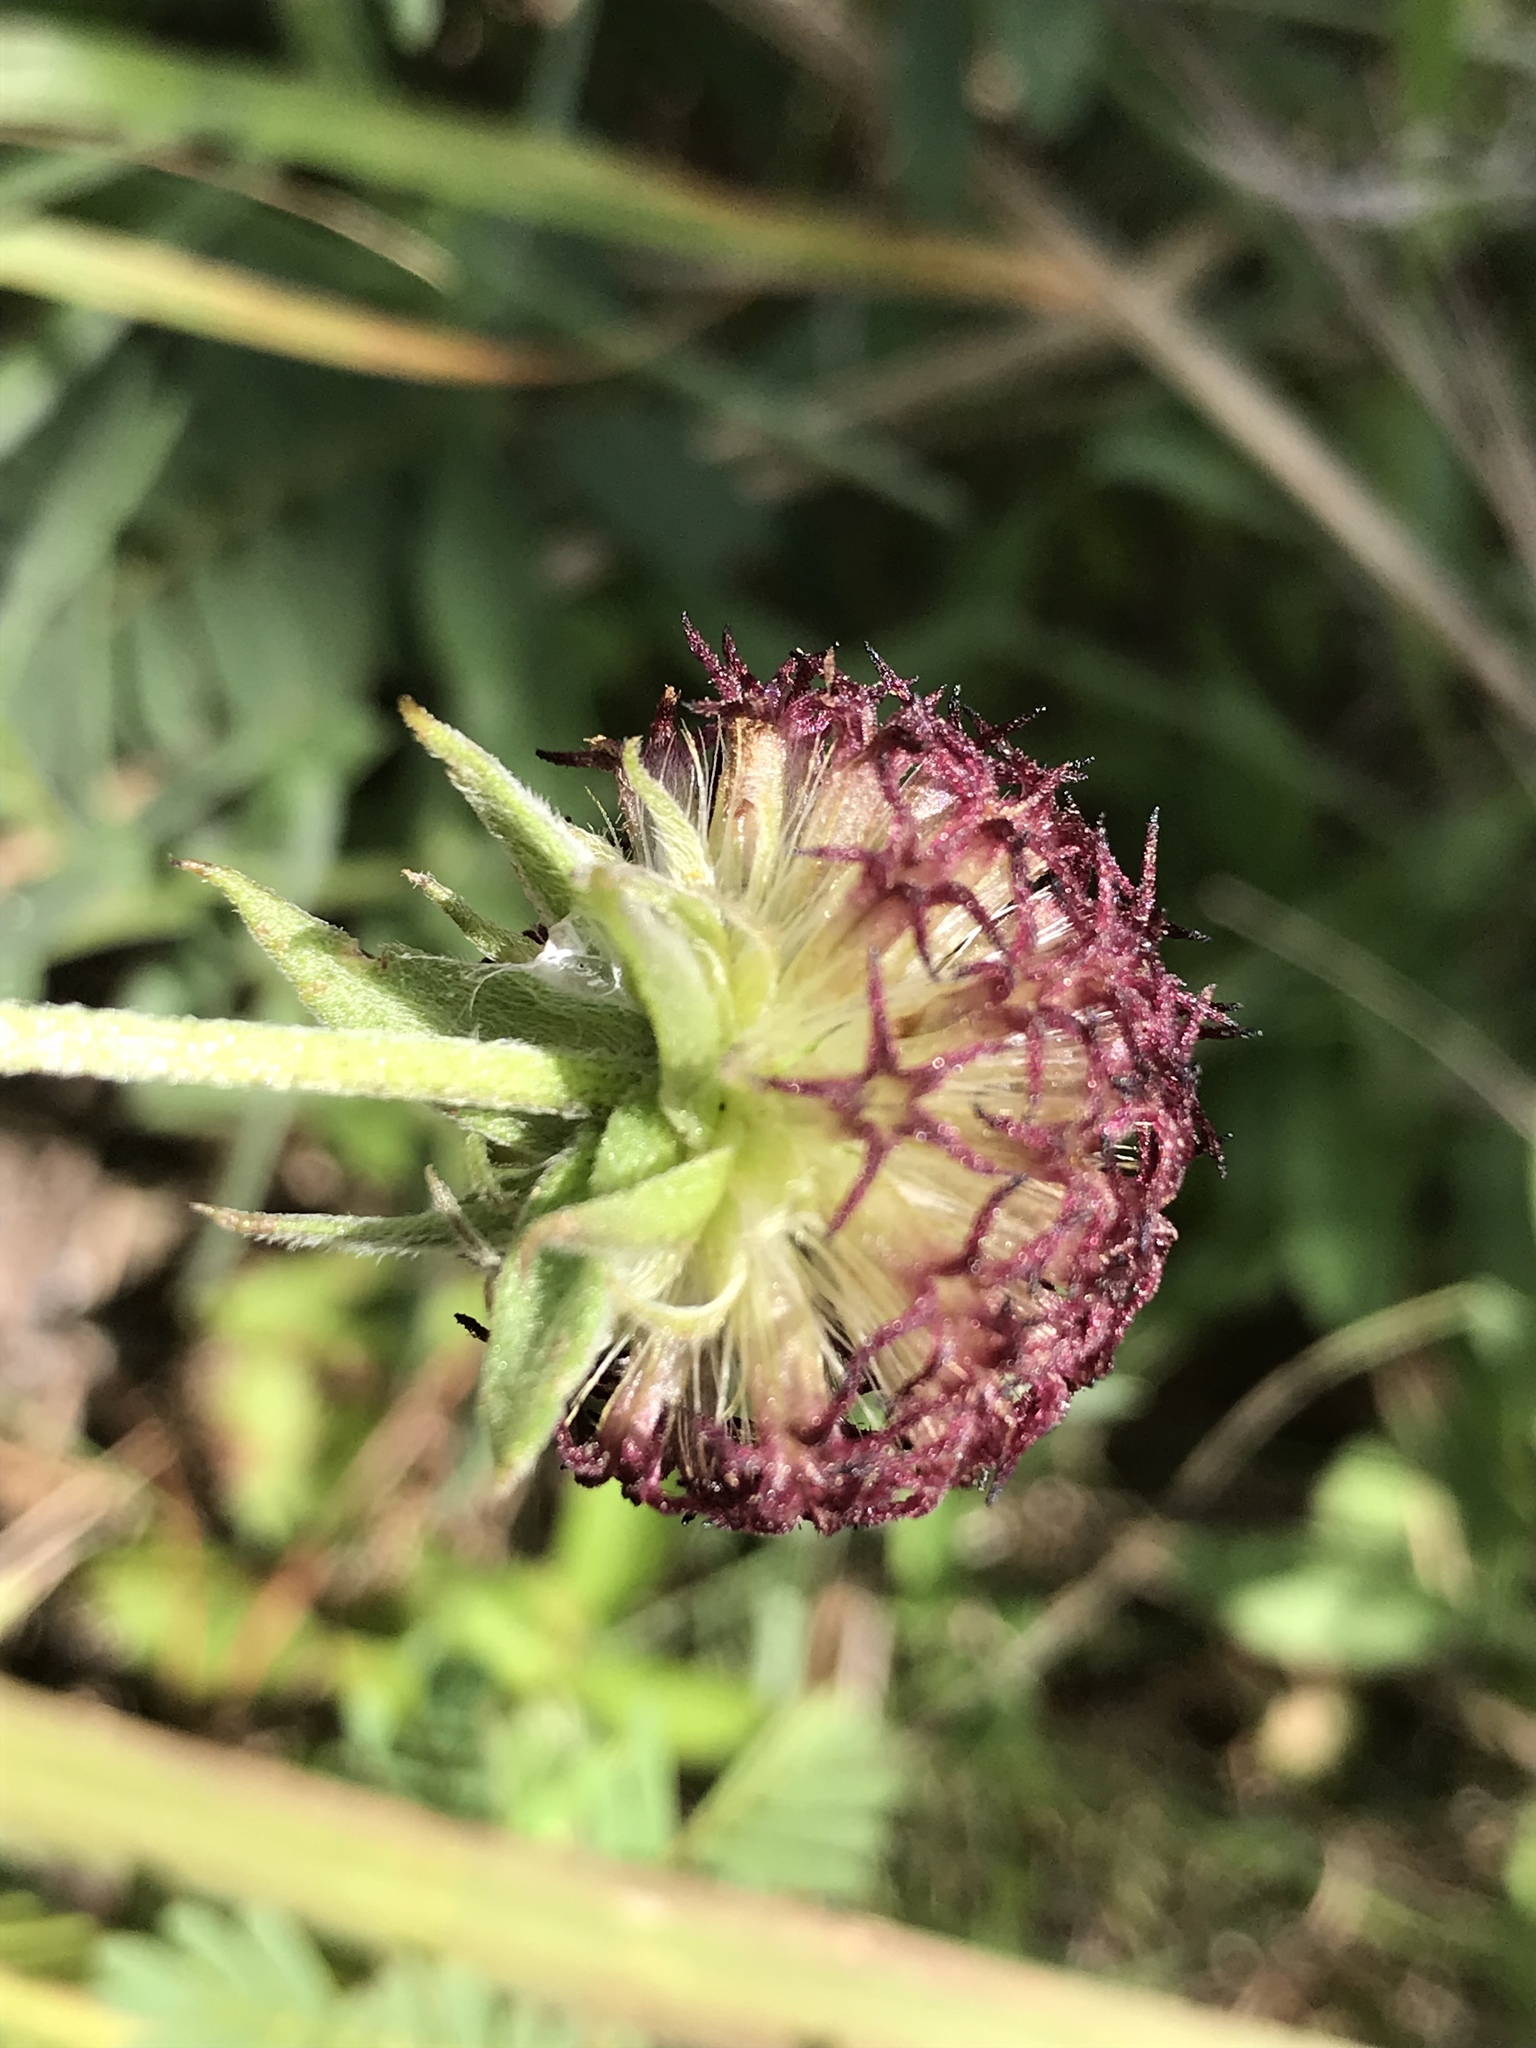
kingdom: Plantae
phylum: Tracheophyta
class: Magnoliopsida
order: Asterales
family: Asteraceae
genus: Gaillardia
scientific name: Gaillardia aestivalis
